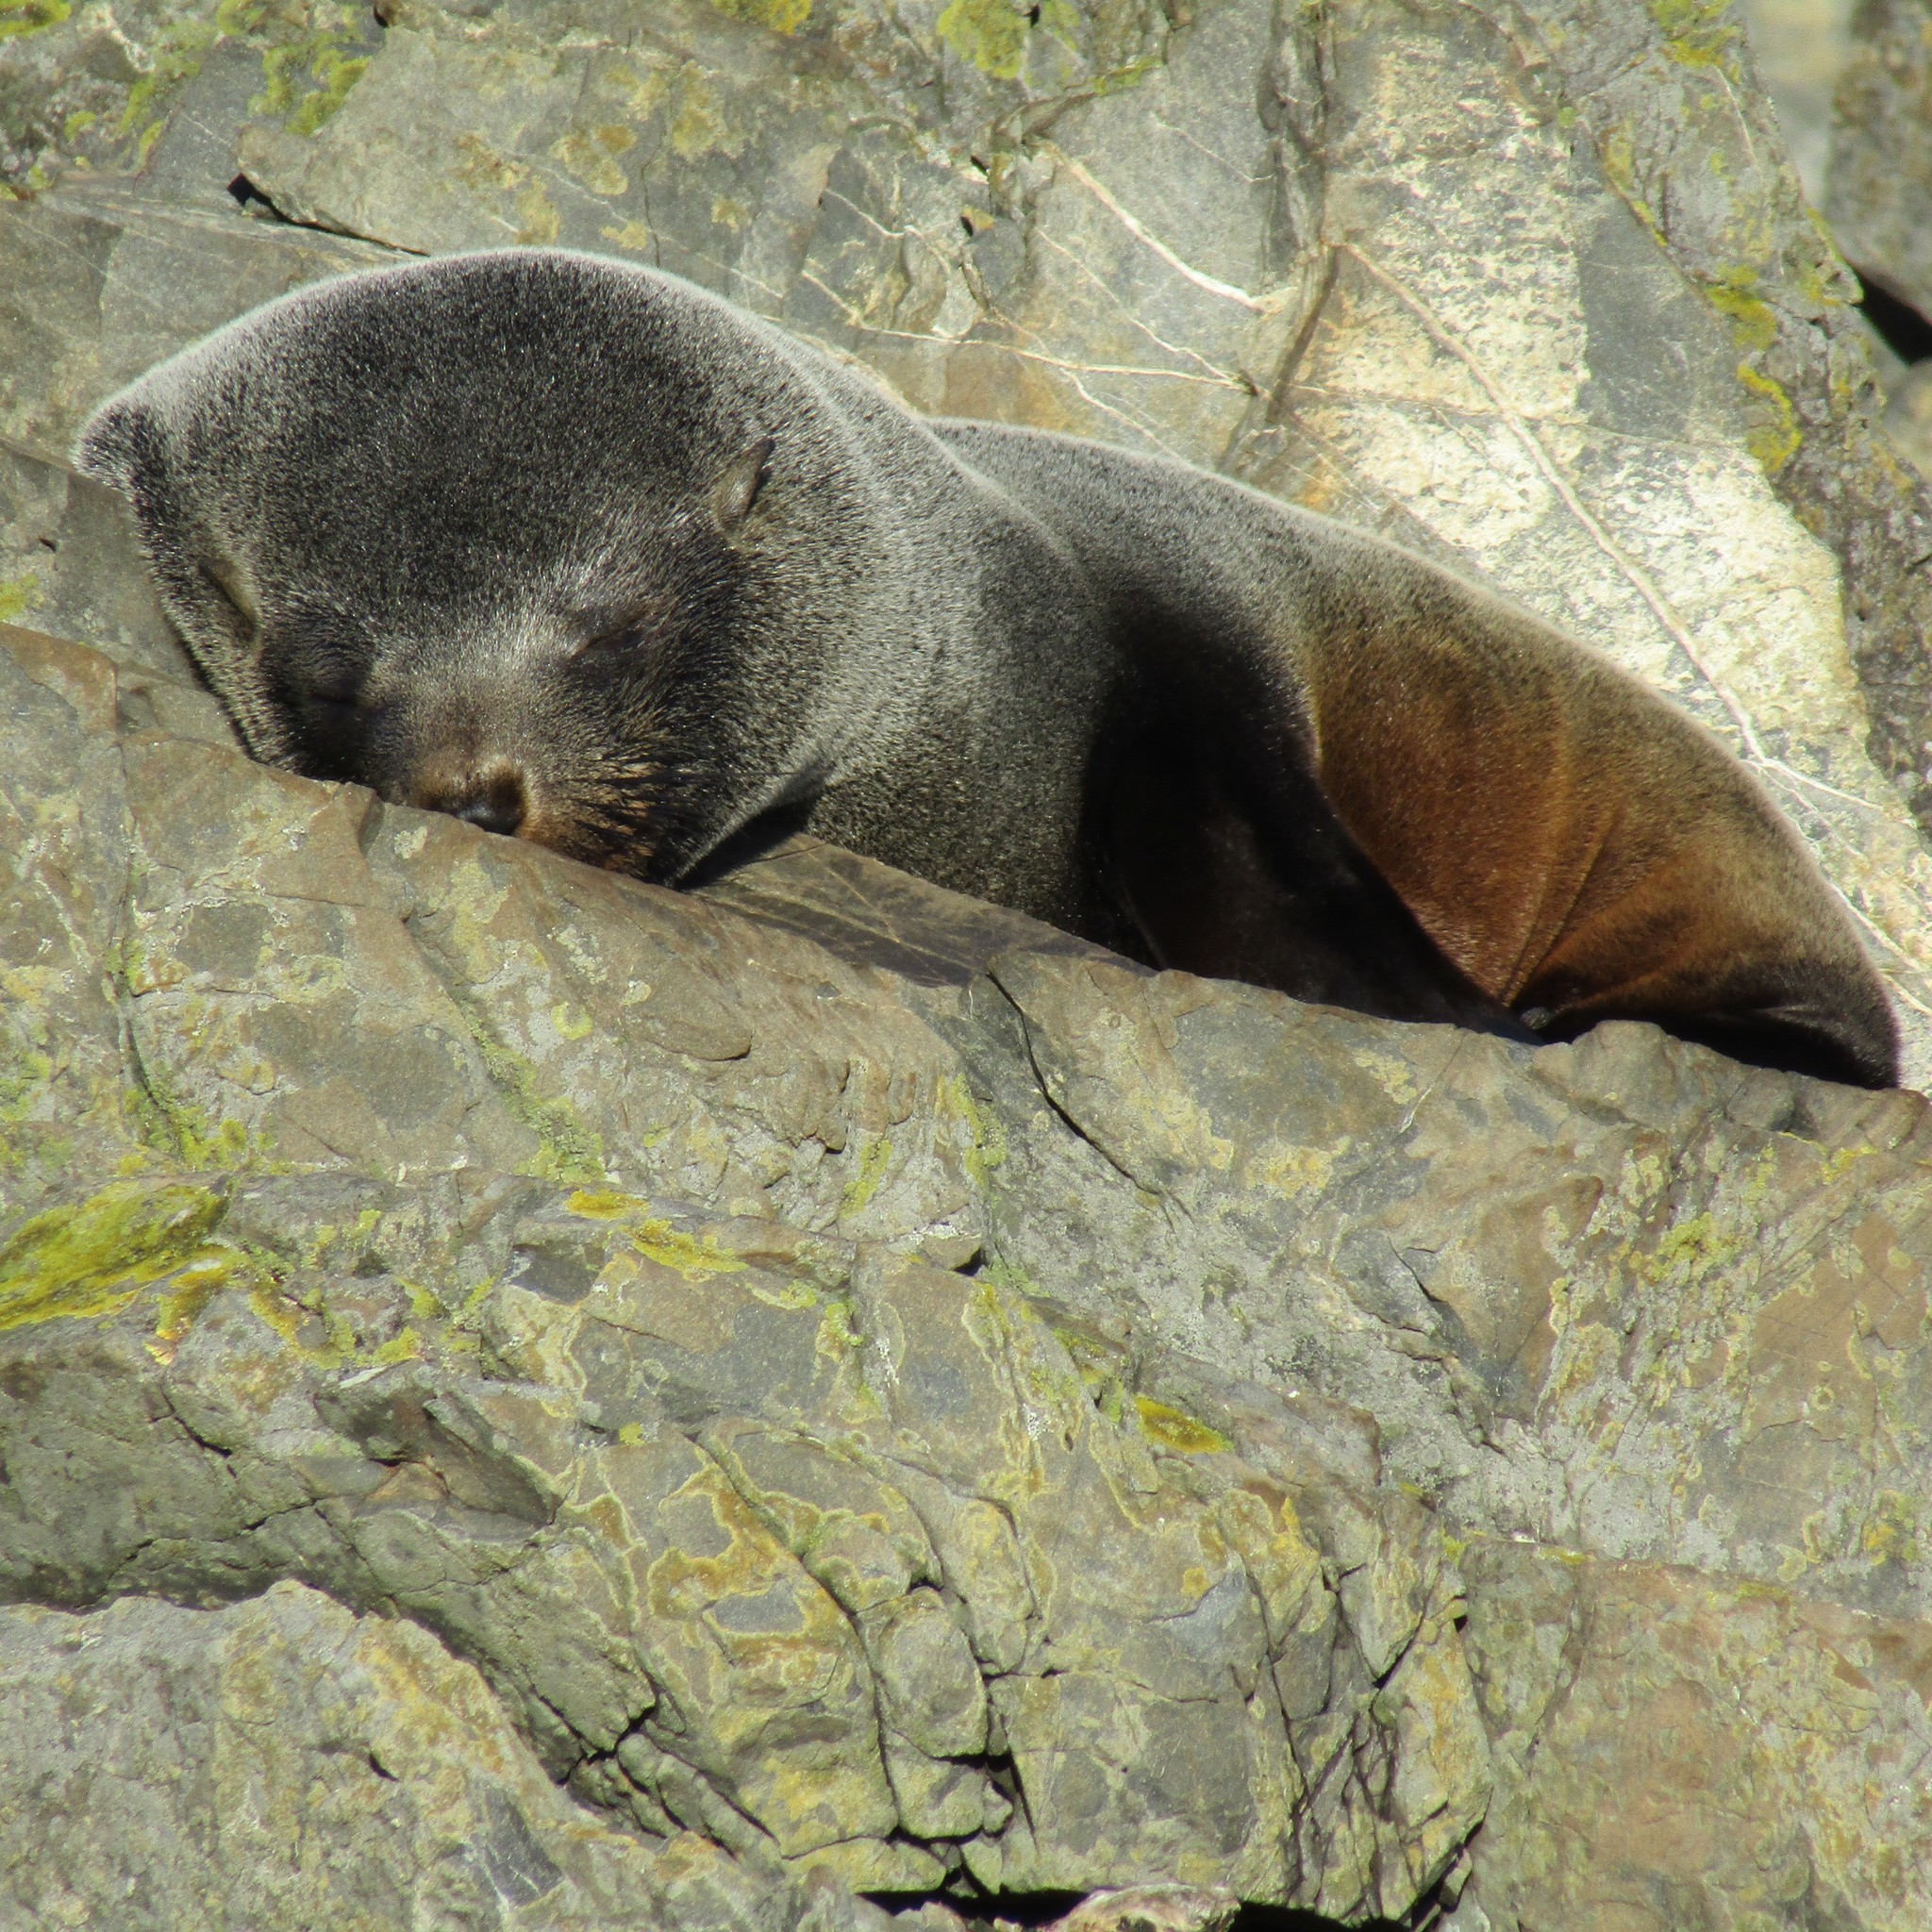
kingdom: Animalia
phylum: Chordata
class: Mammalia
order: Carnivora
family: Otariidae
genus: Arctocephalus
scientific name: Arctocephalus forsteri
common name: New zealand fur seal
